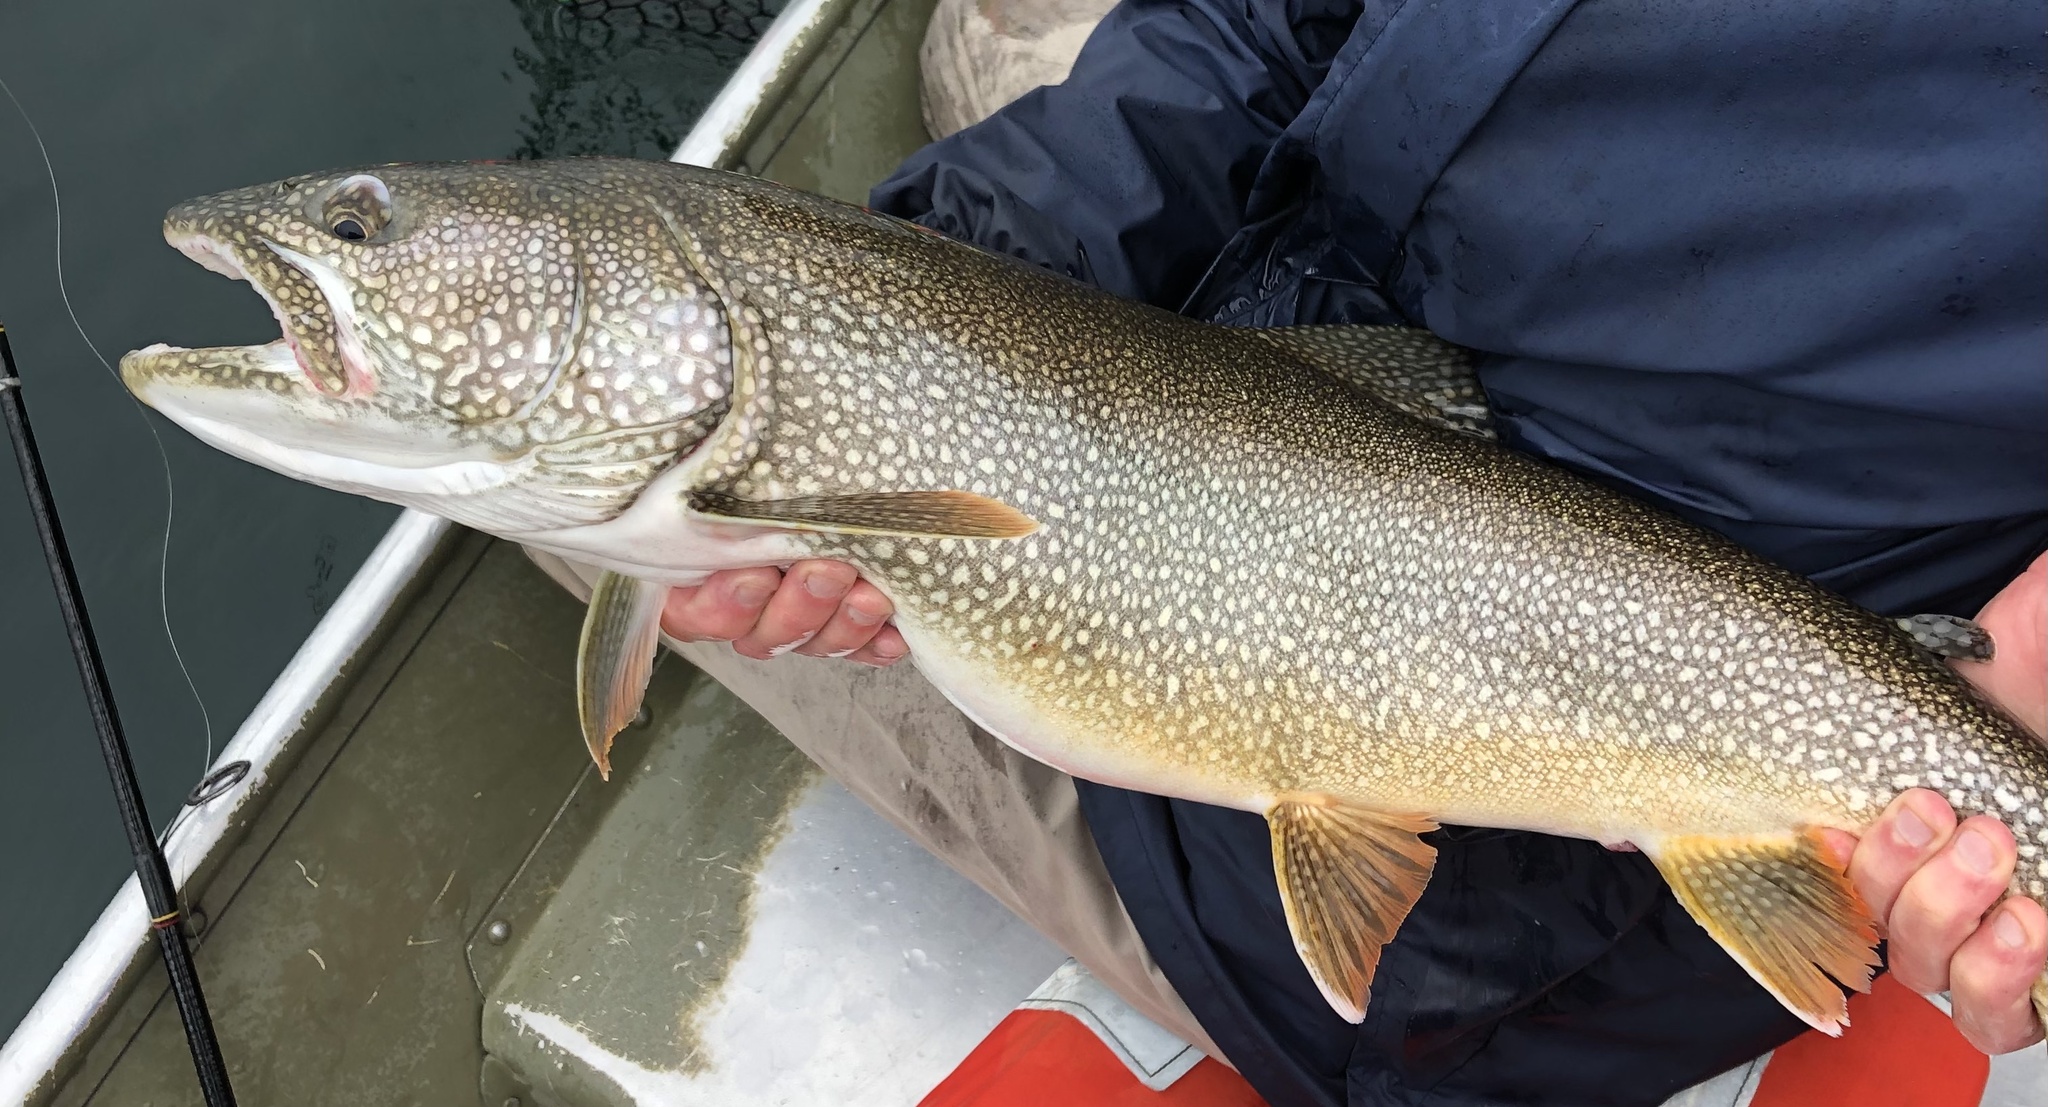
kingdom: Animalia
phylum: Chordata
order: Salmoniformes
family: Salmonidae
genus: Salvelinus
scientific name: Salvelinus namaycush
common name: American lake charr
